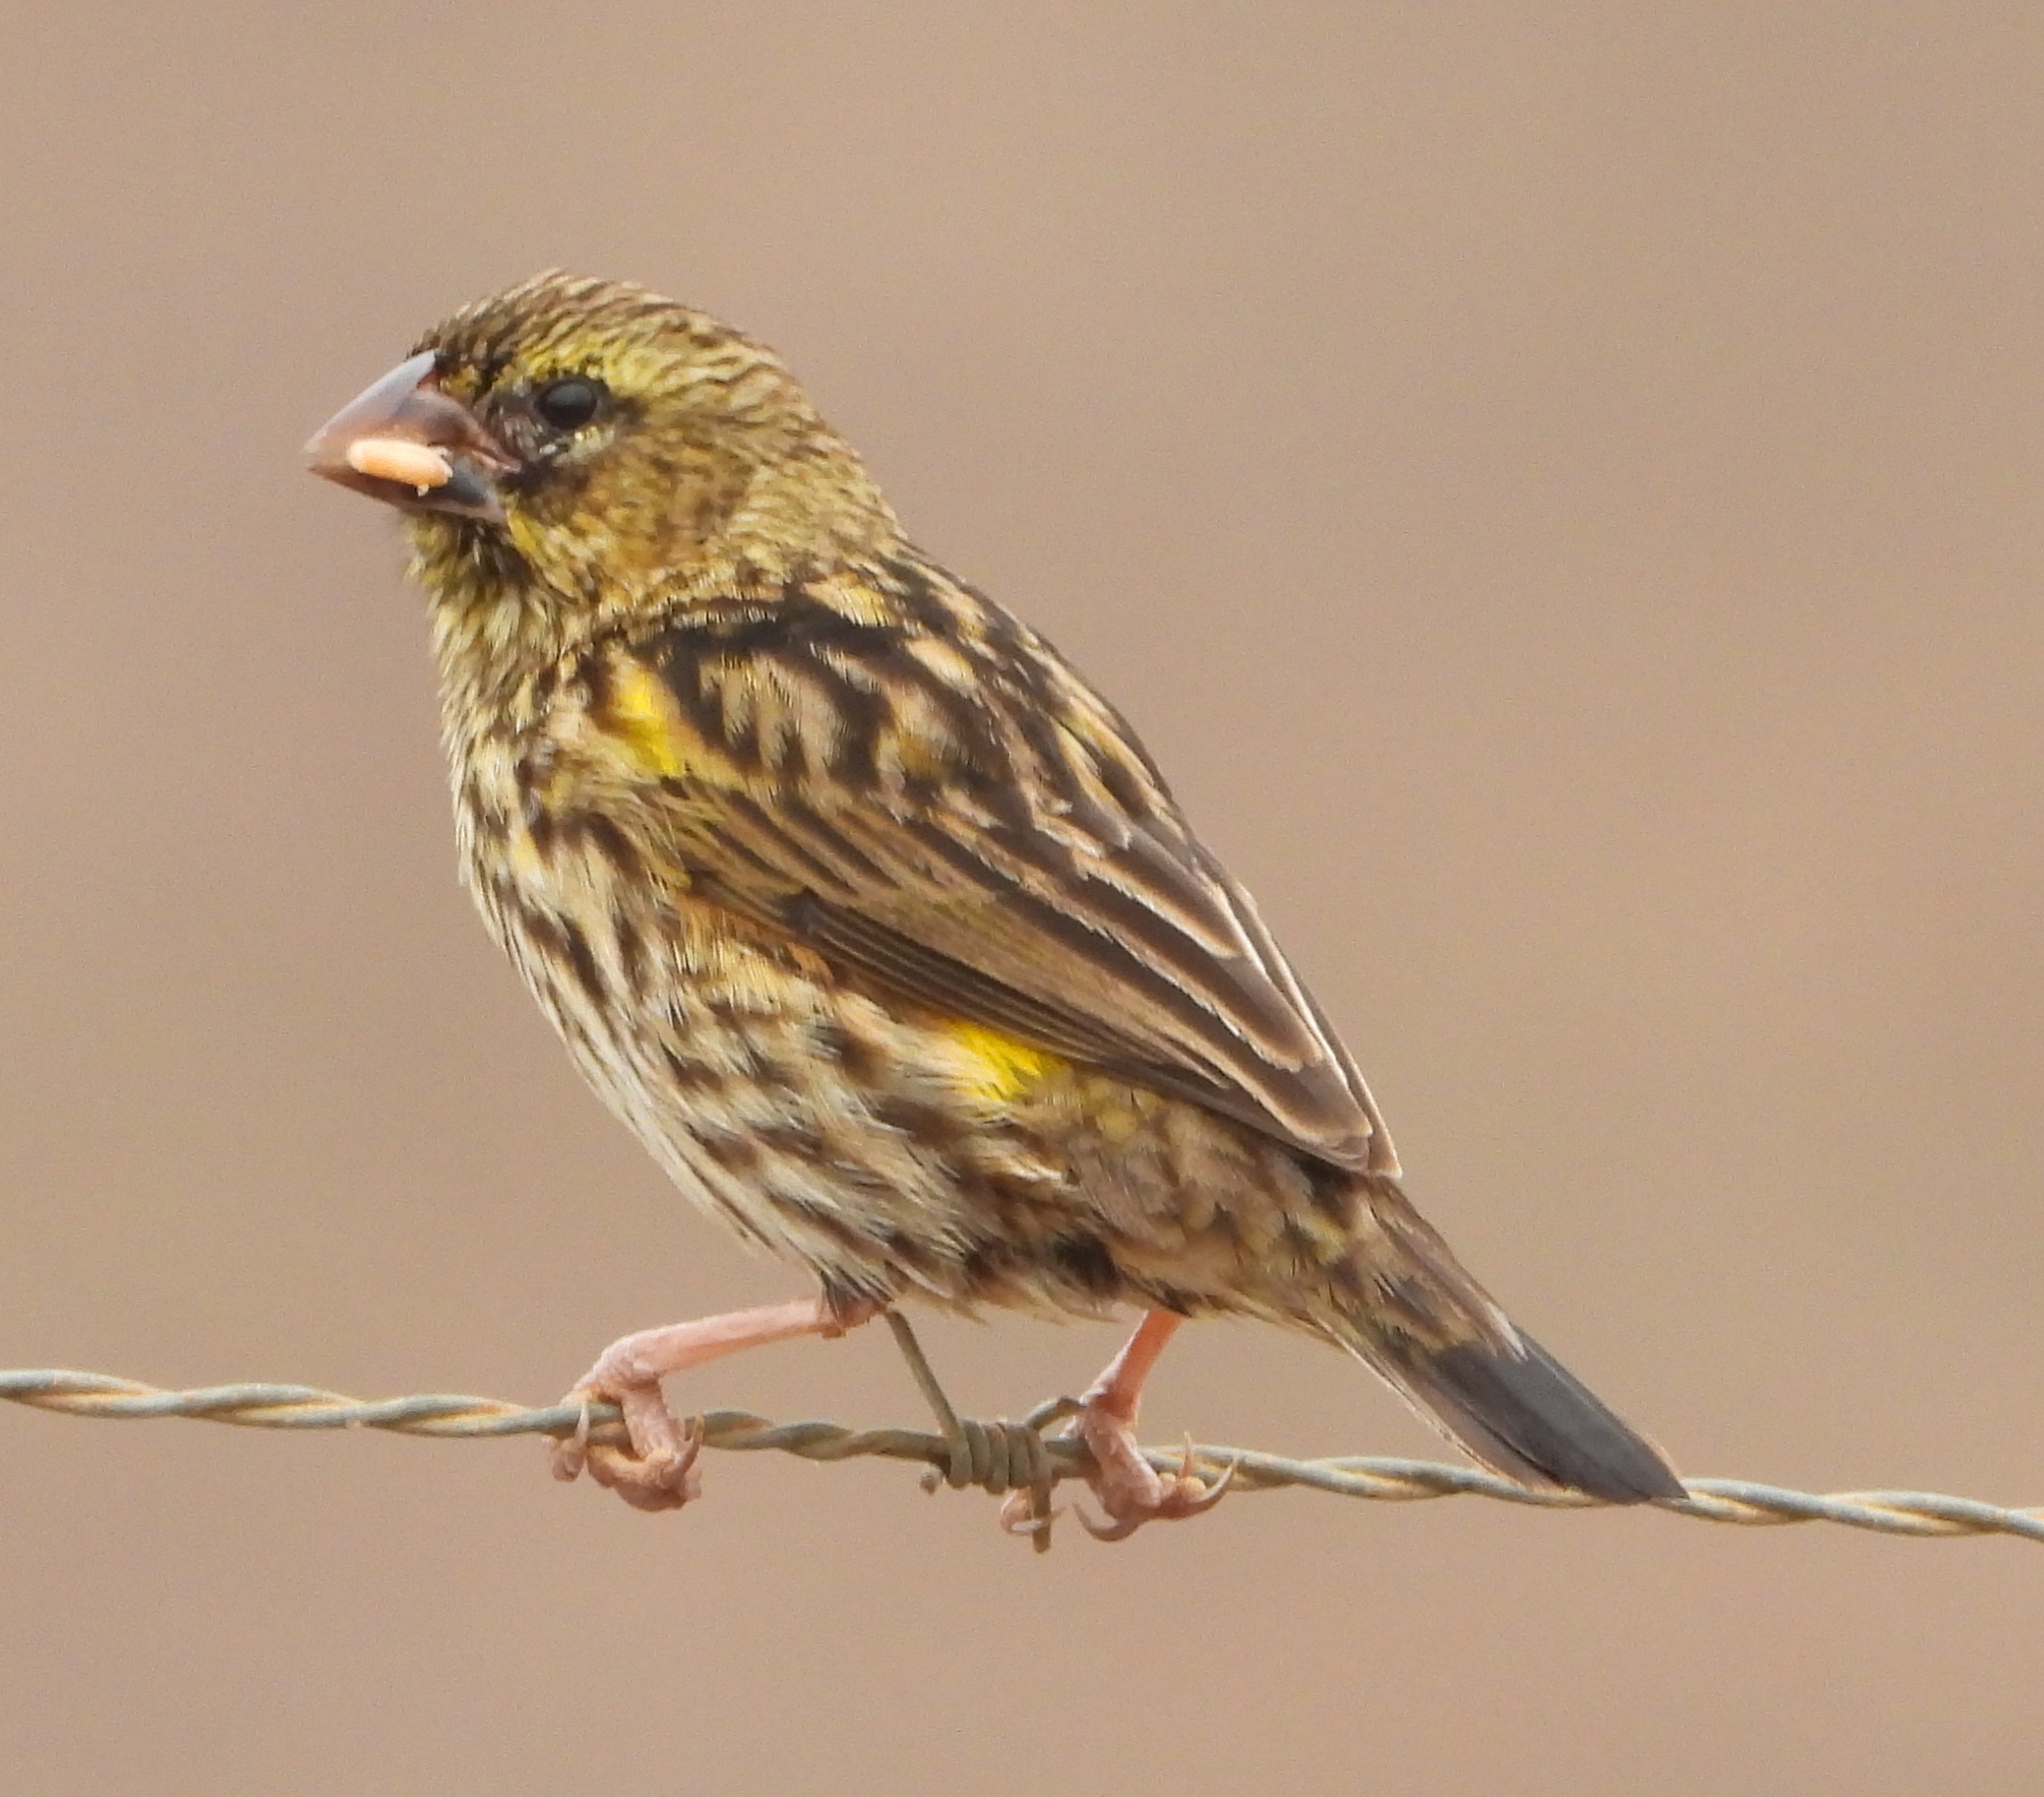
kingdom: Animalia
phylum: Chordata
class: Aves
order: Passeriformes
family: Ploceidae
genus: Euplectes
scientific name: Euplectes capensis
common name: Yellow bishop
